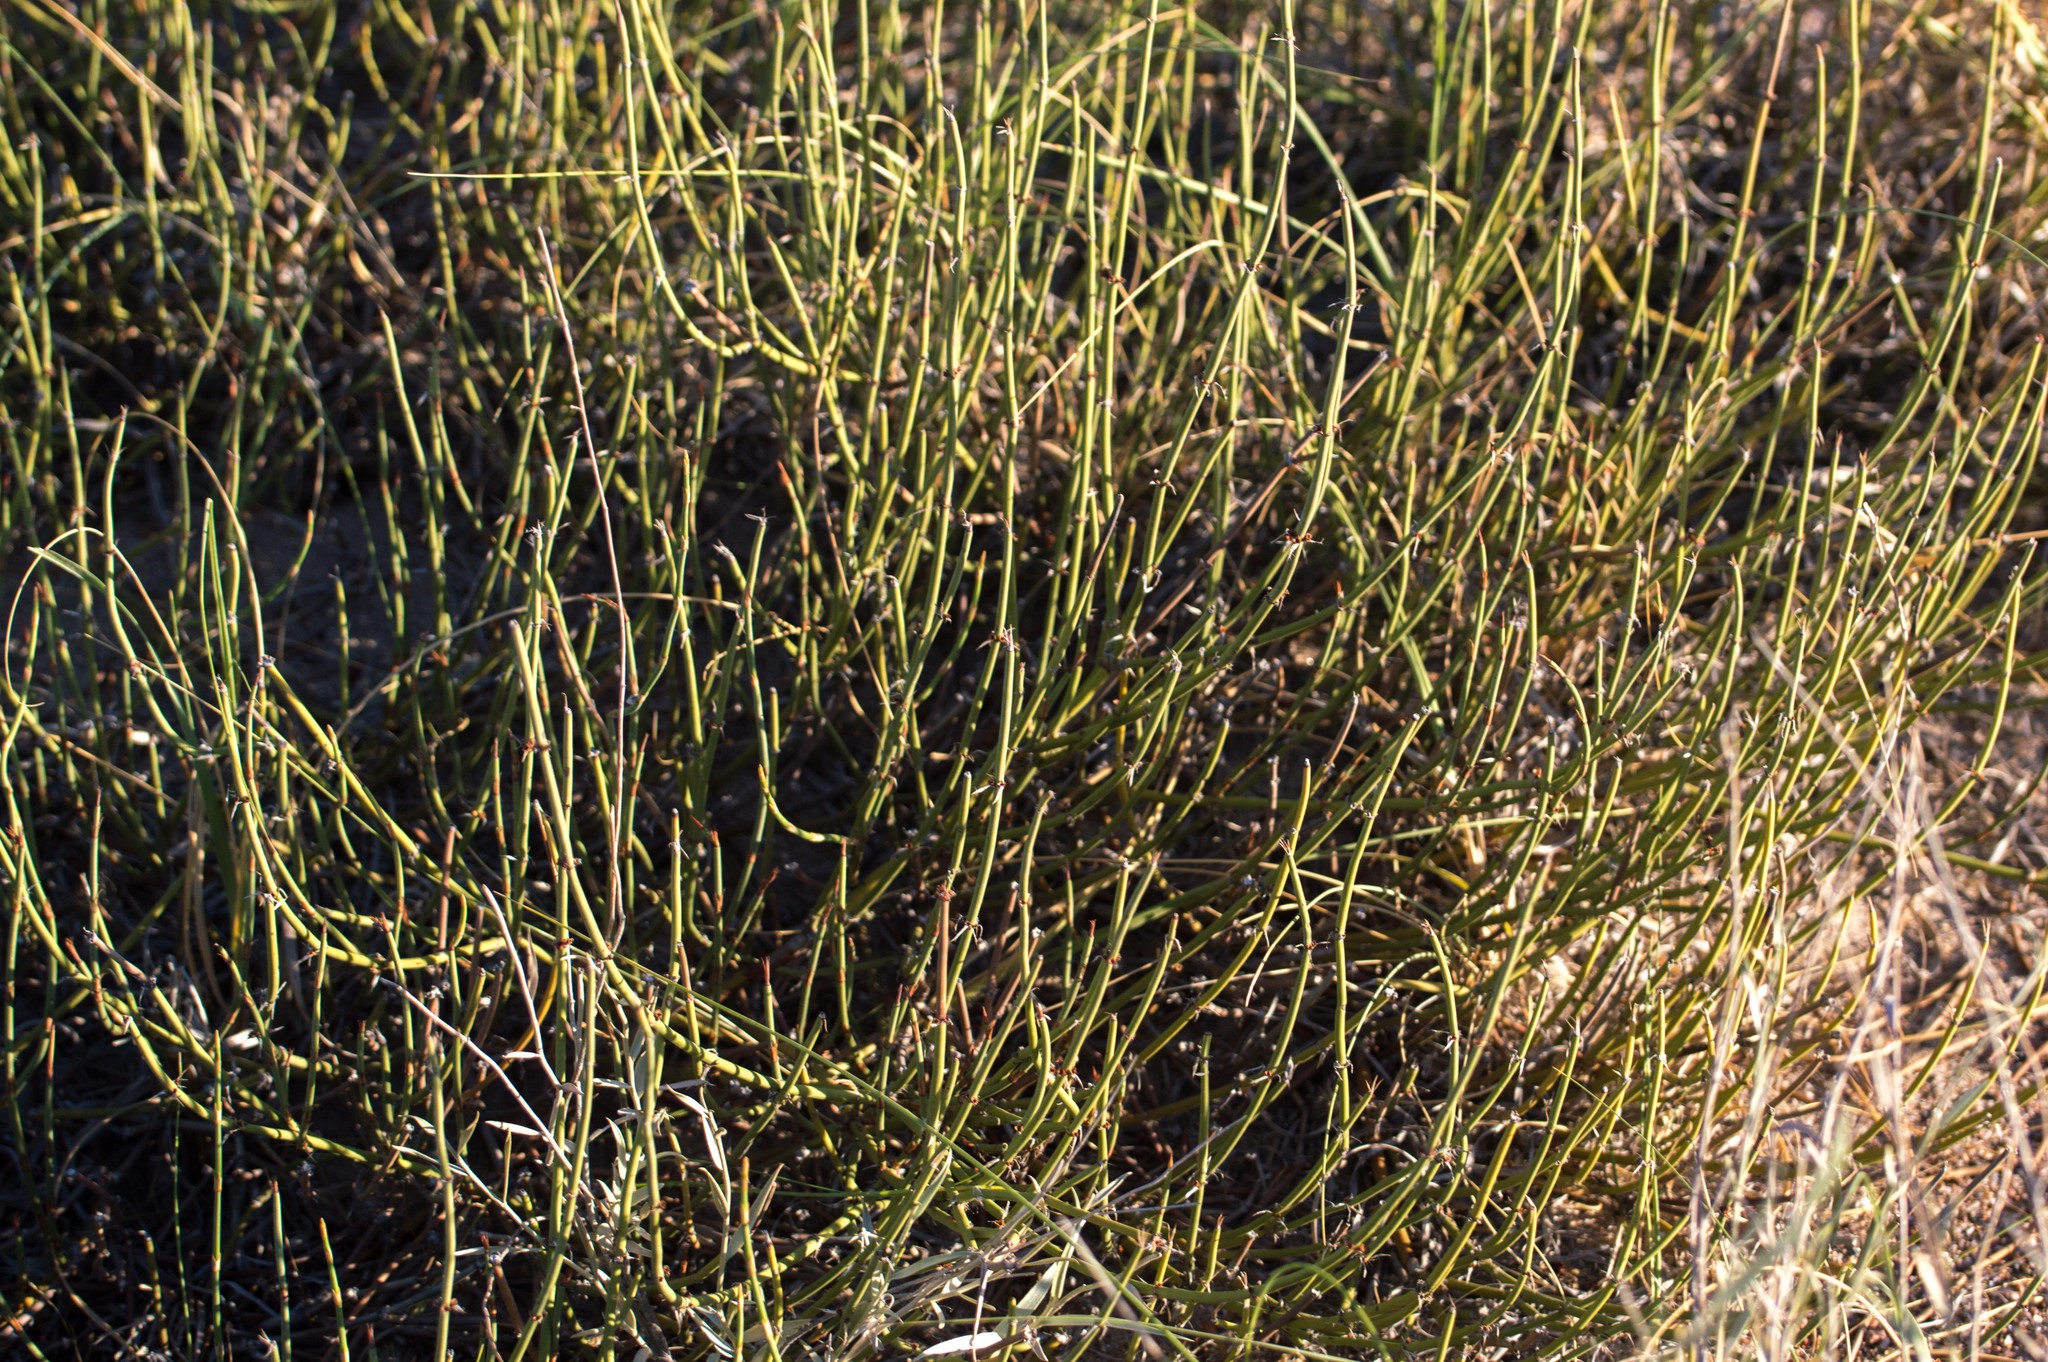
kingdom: Plantae
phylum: Tracheophyta
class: Gnetopsida
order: Ephedrales
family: Ephedraceae
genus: Ephedra
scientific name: Ephedra ochreata
